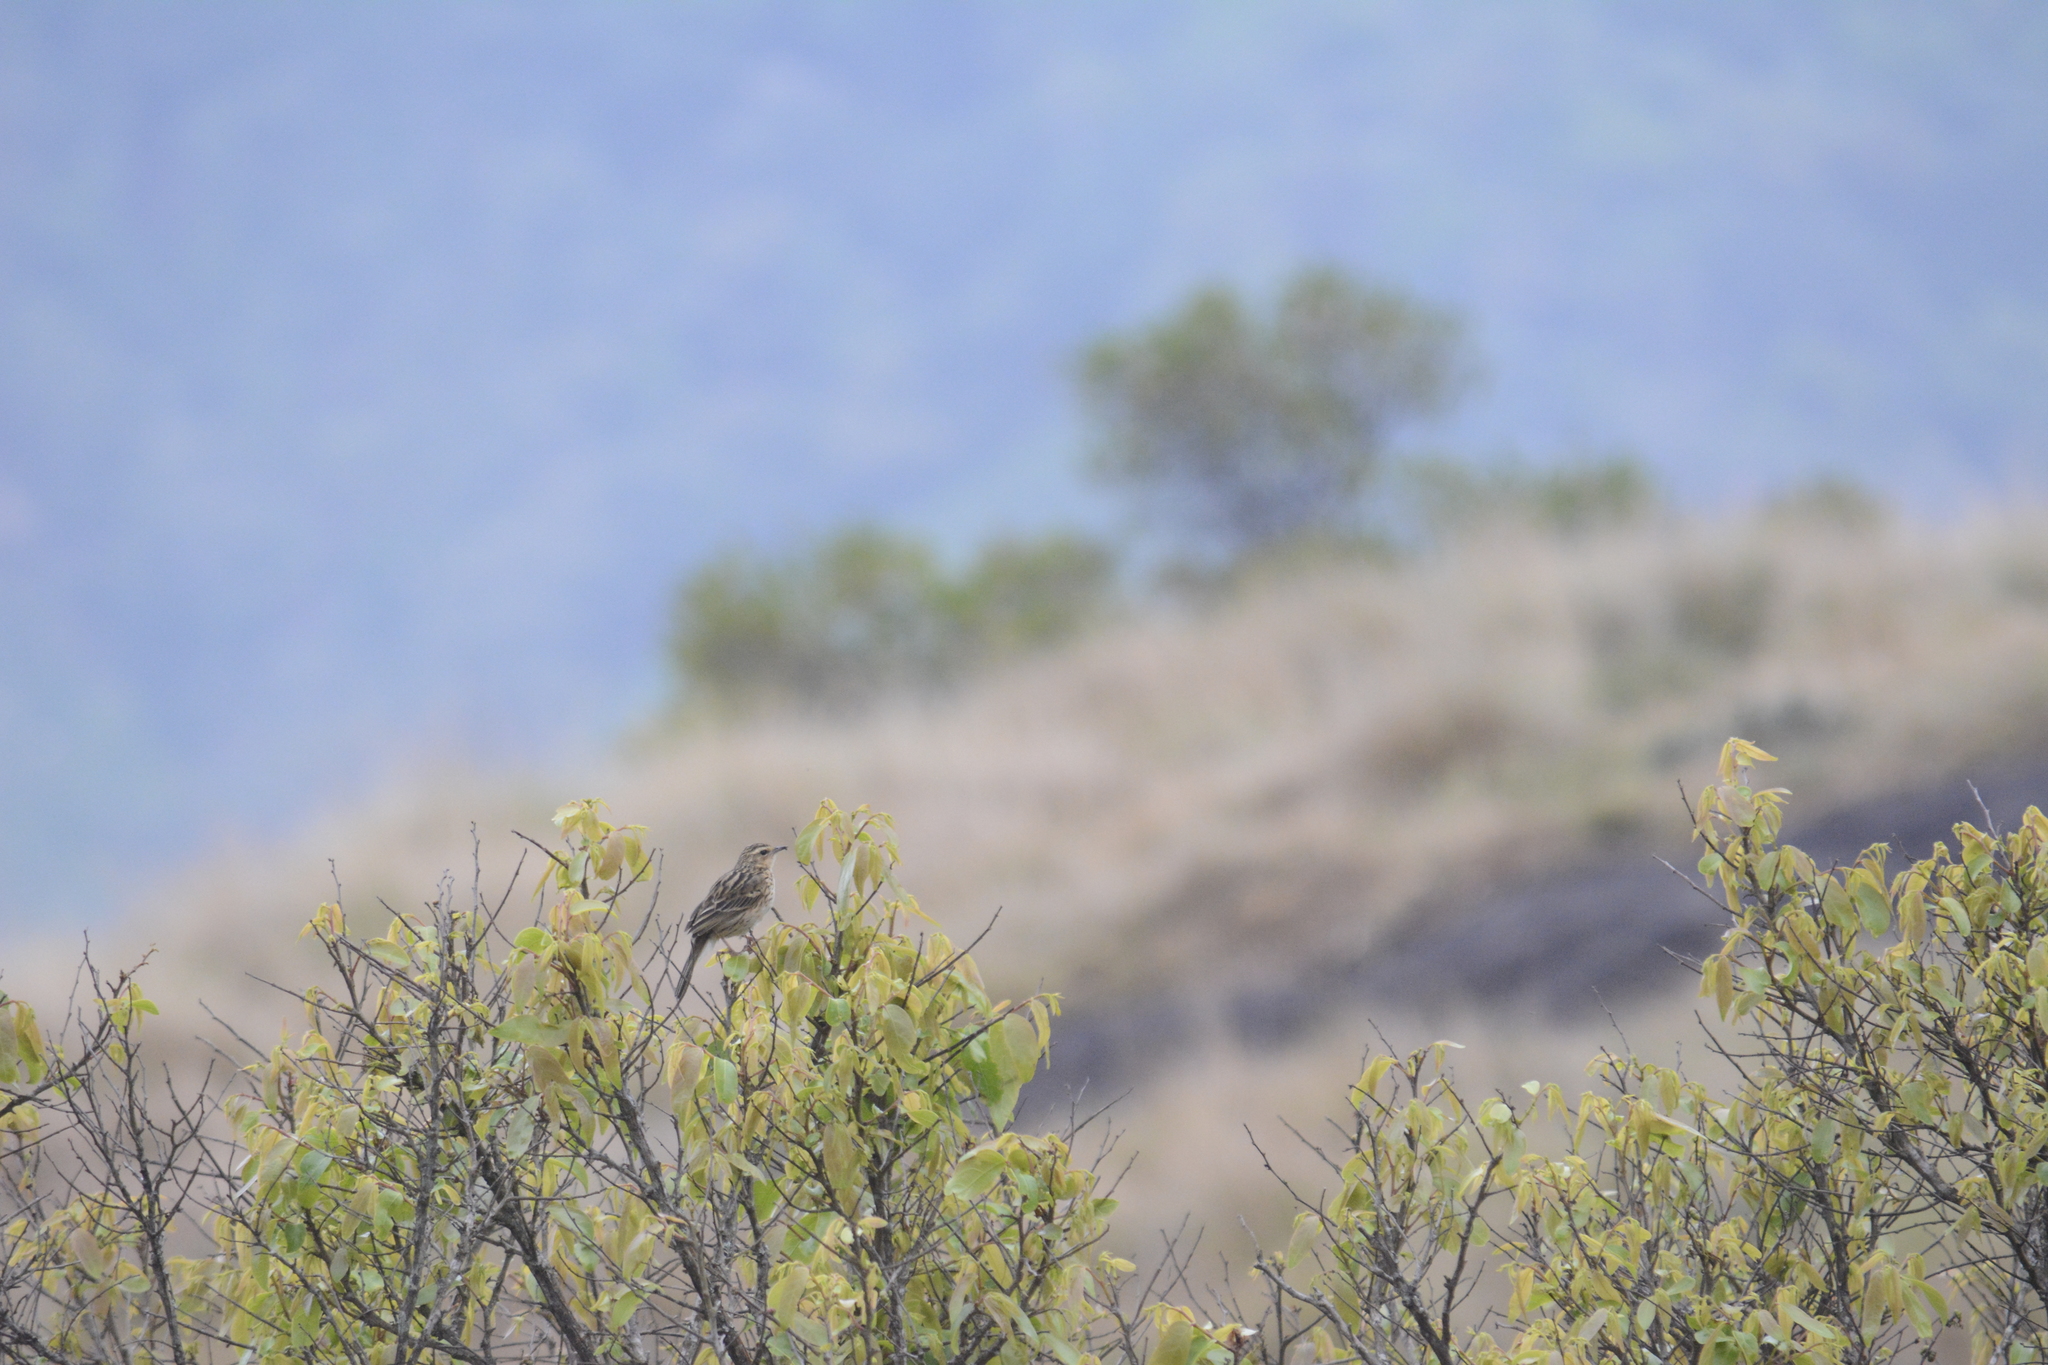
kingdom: Animalia
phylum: Chordata
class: Aves
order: Passeriformes
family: Motacillidae
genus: Anthus
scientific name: Anthus nilghiriensis
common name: Nilgiri pipit
